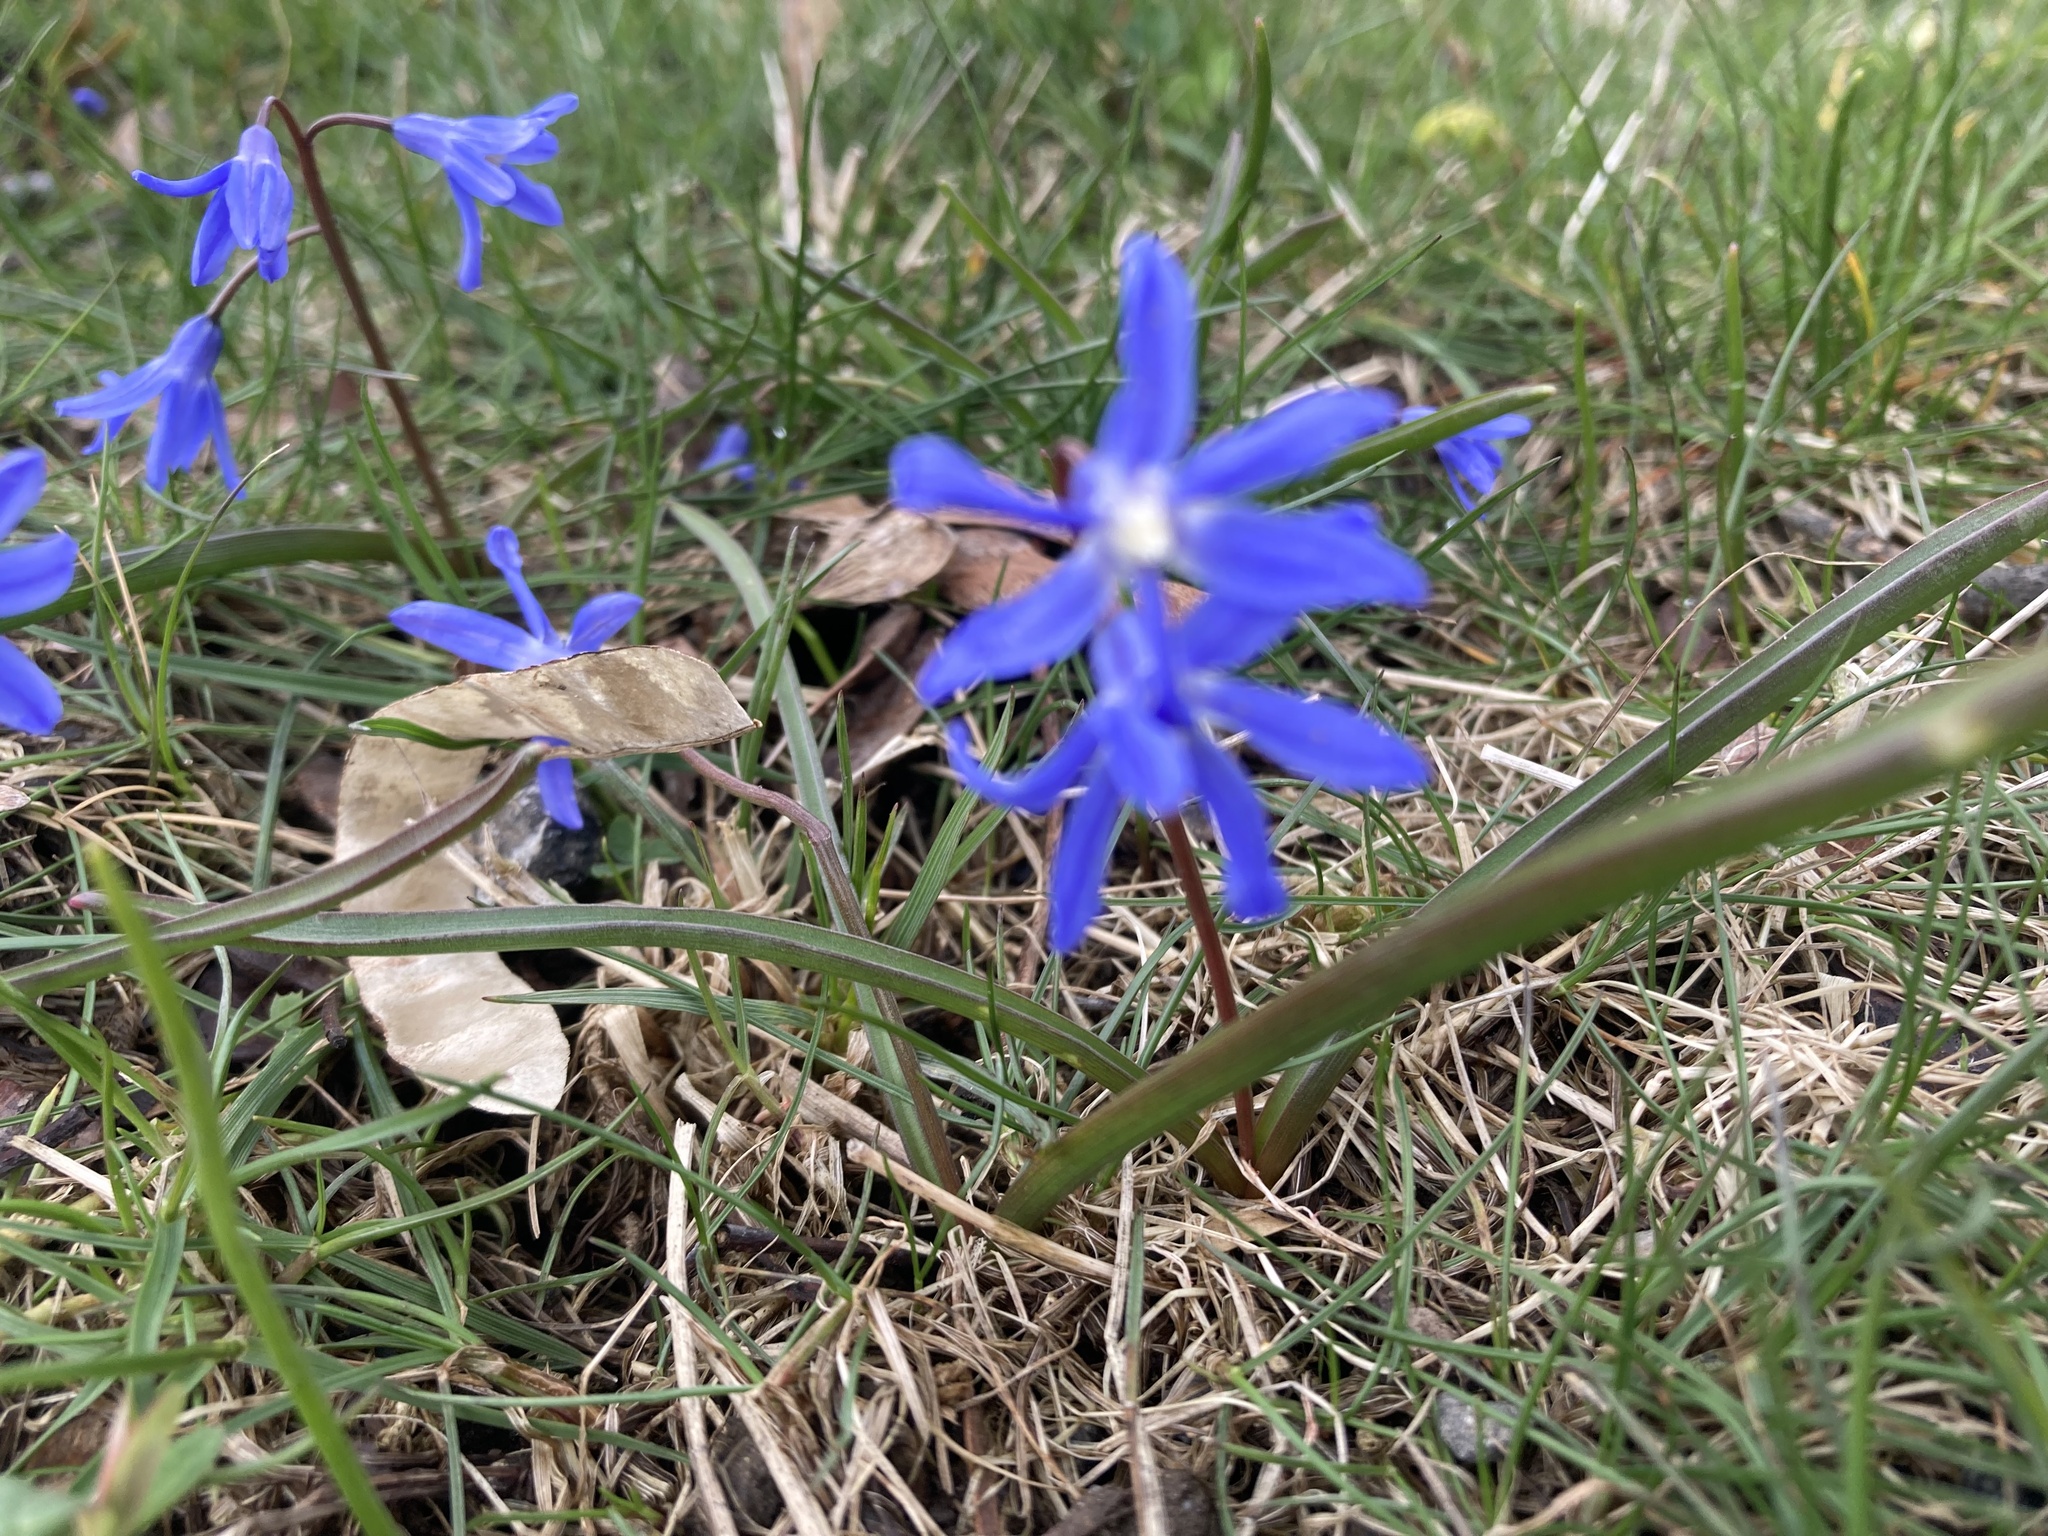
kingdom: Plantae
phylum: Tracheophyta
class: Liliopsida
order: Asparagales
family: Asparagaceae
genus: Scilla
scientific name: Scilla forbesii
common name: Glory-of-the-snow
